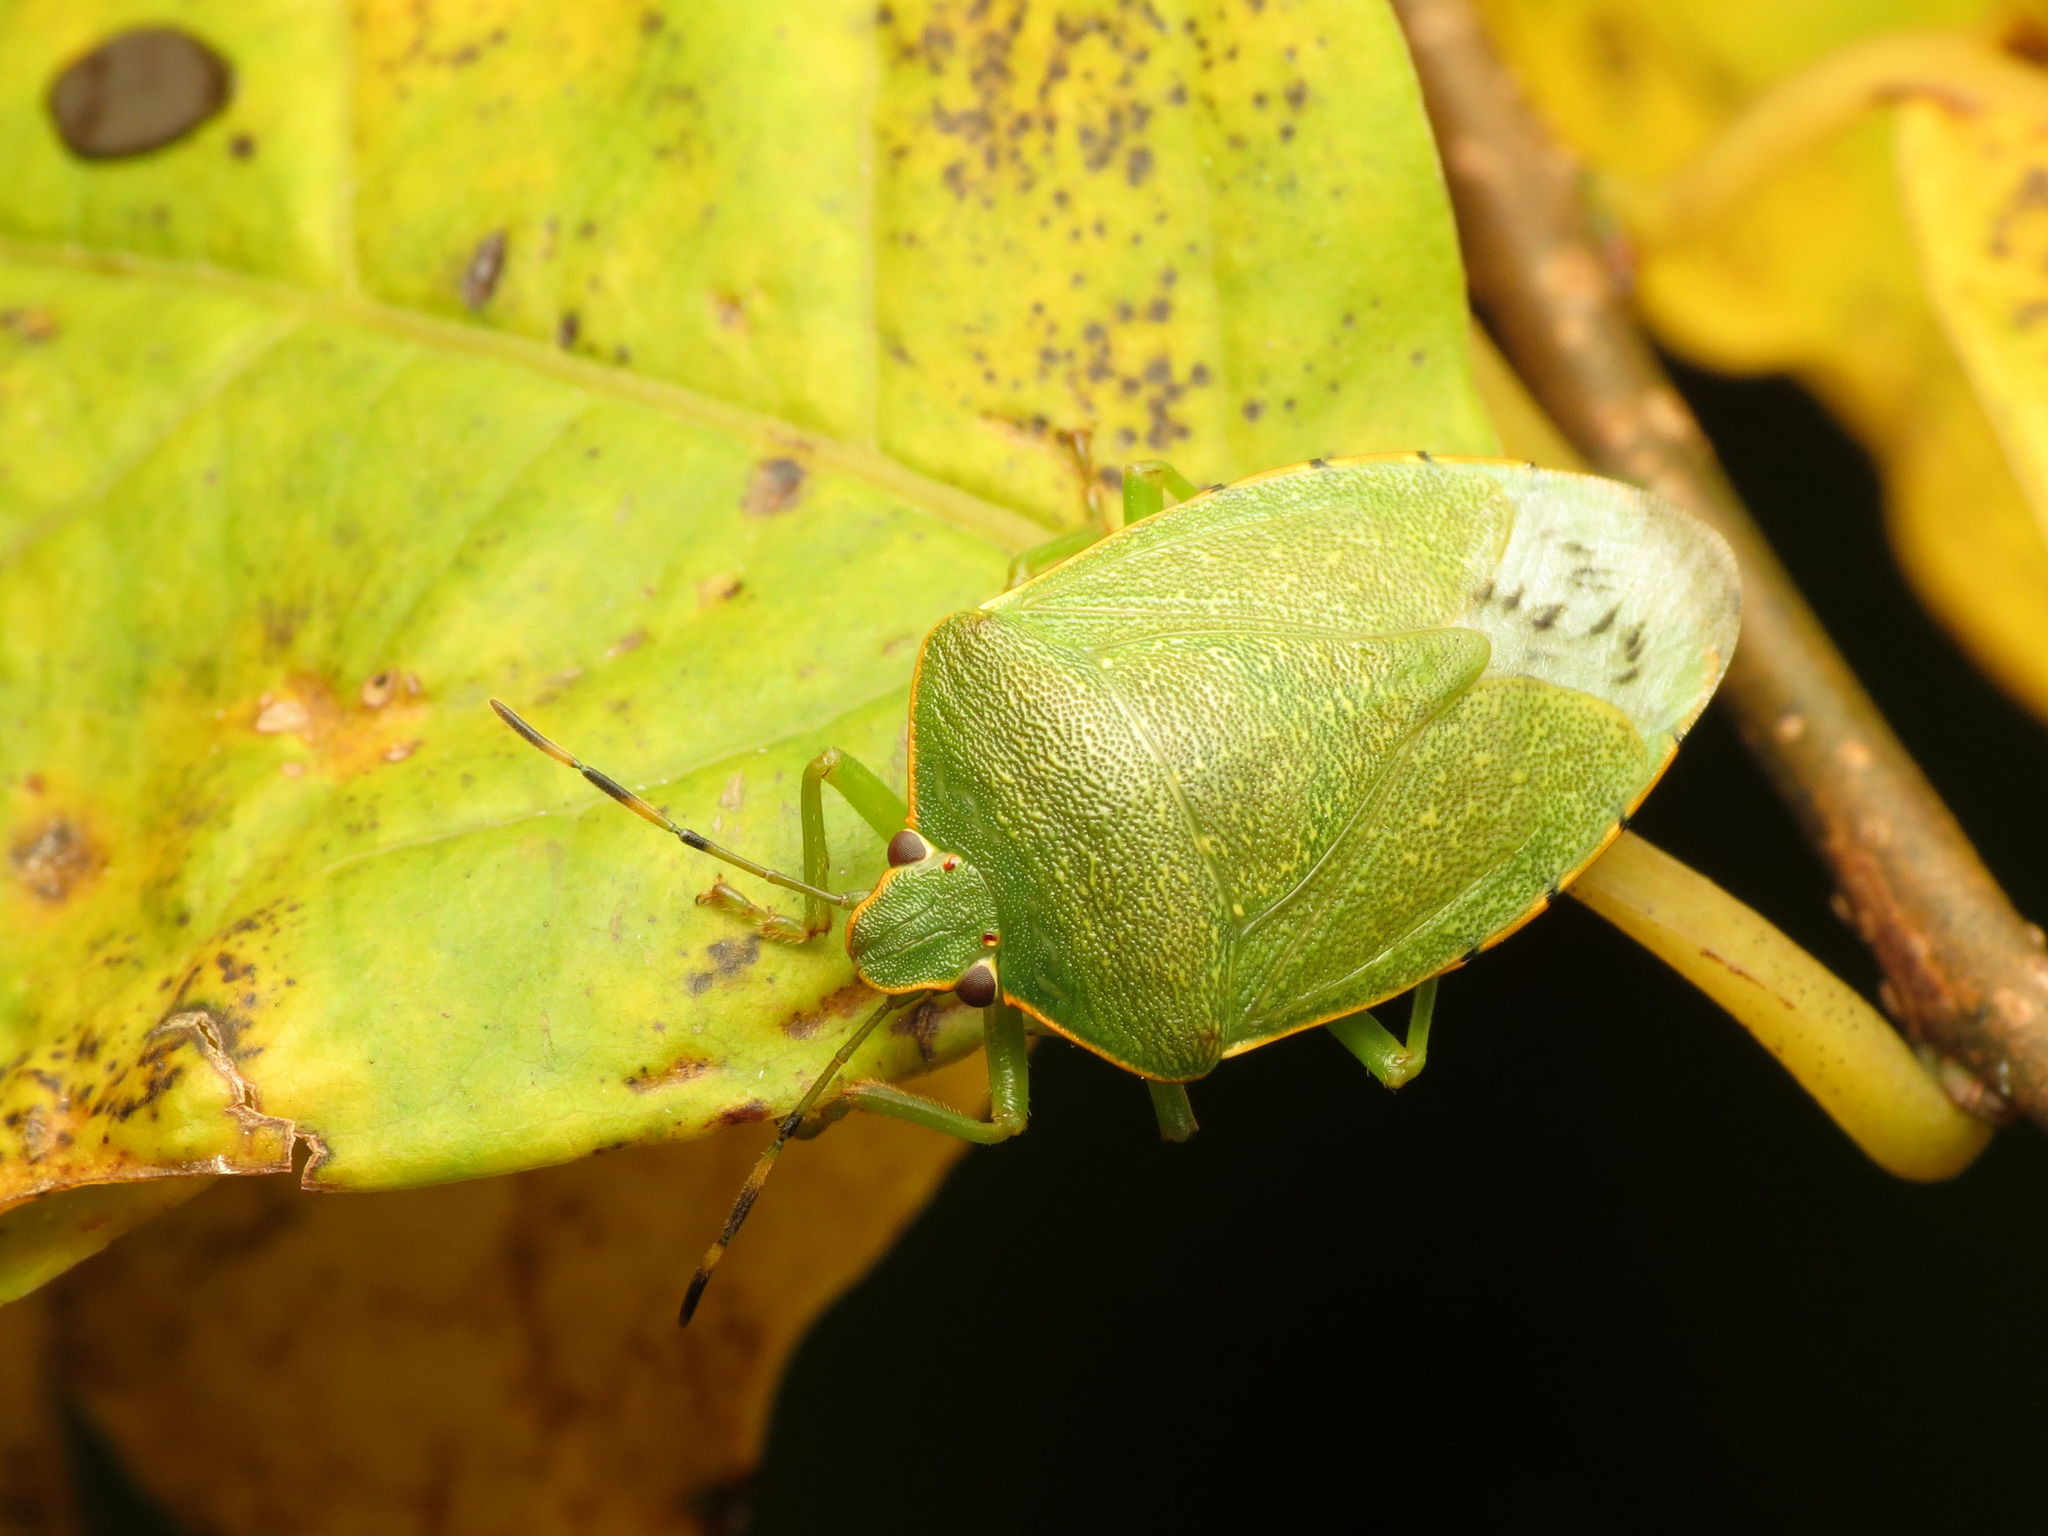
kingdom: Animalia
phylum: Arthropoda
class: Insecta
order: Hemiptera
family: Pentatomidae
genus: Chinavia
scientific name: Chinavia hilaris
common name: Green stink bug
